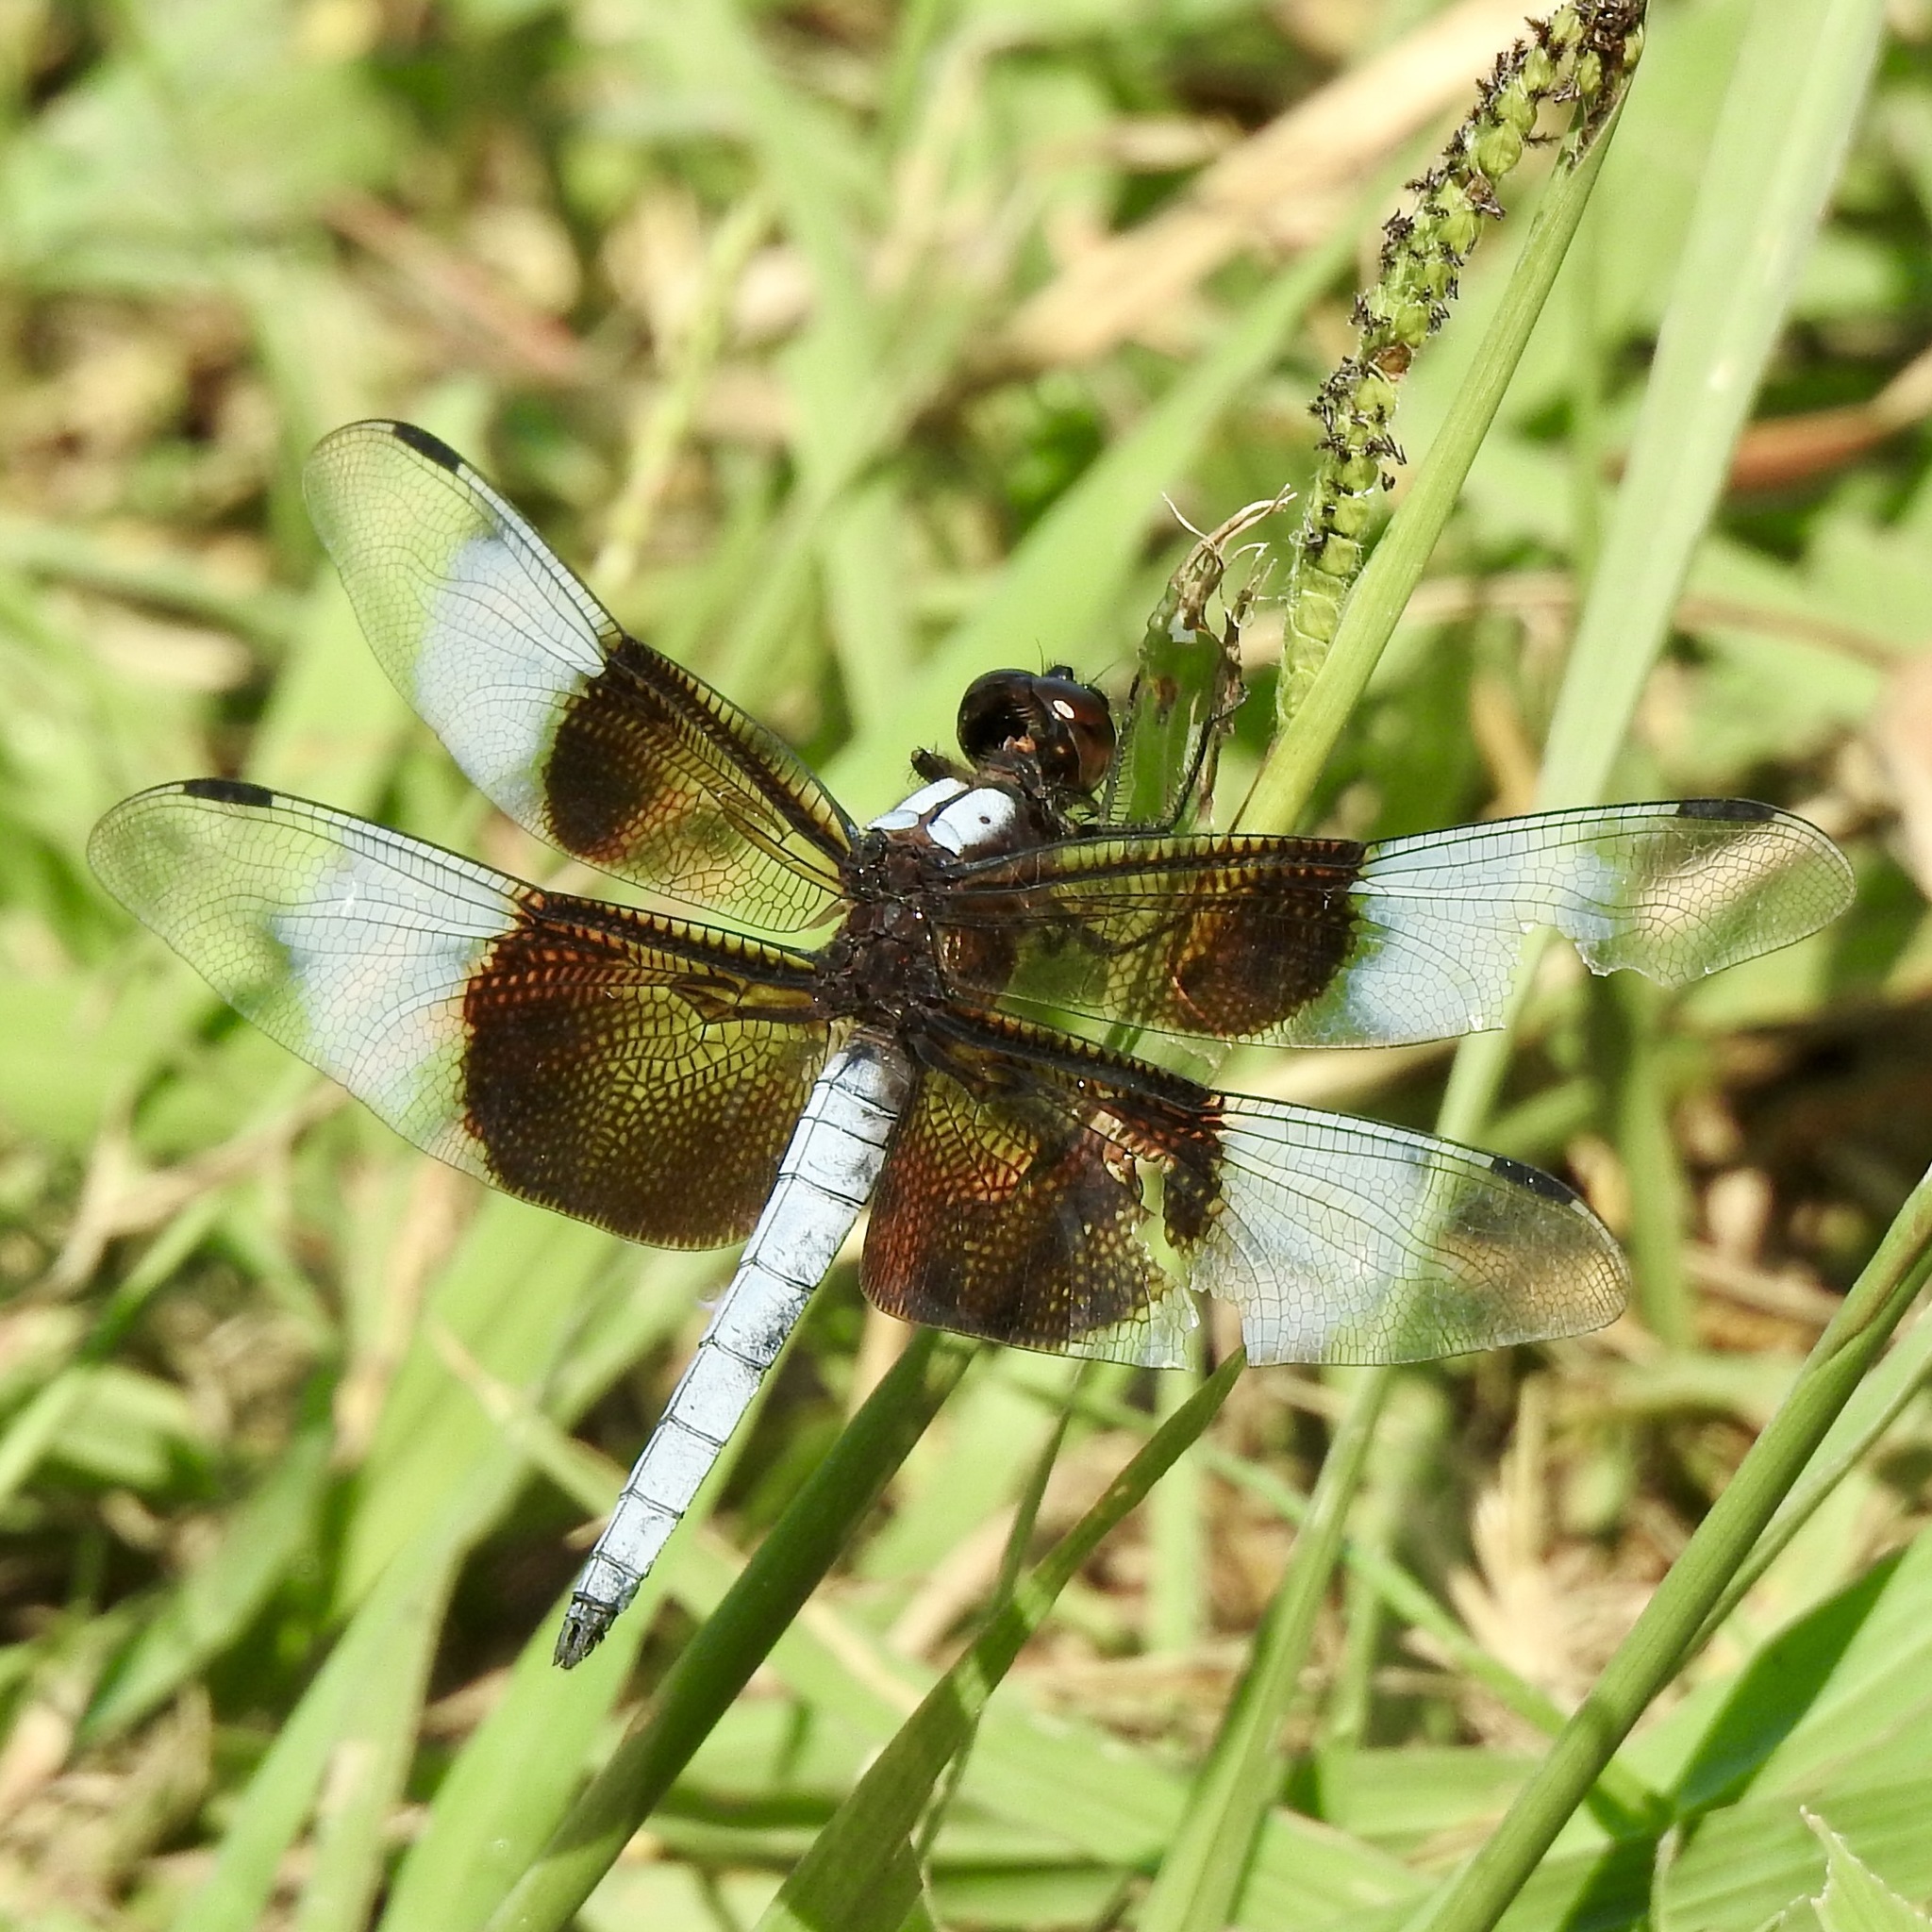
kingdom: Animalia
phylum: Arthropoda
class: Insecta
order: Odonata
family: Libellulidae
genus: Libellula
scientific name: Libellula luctuosa
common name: Widow skimmer
